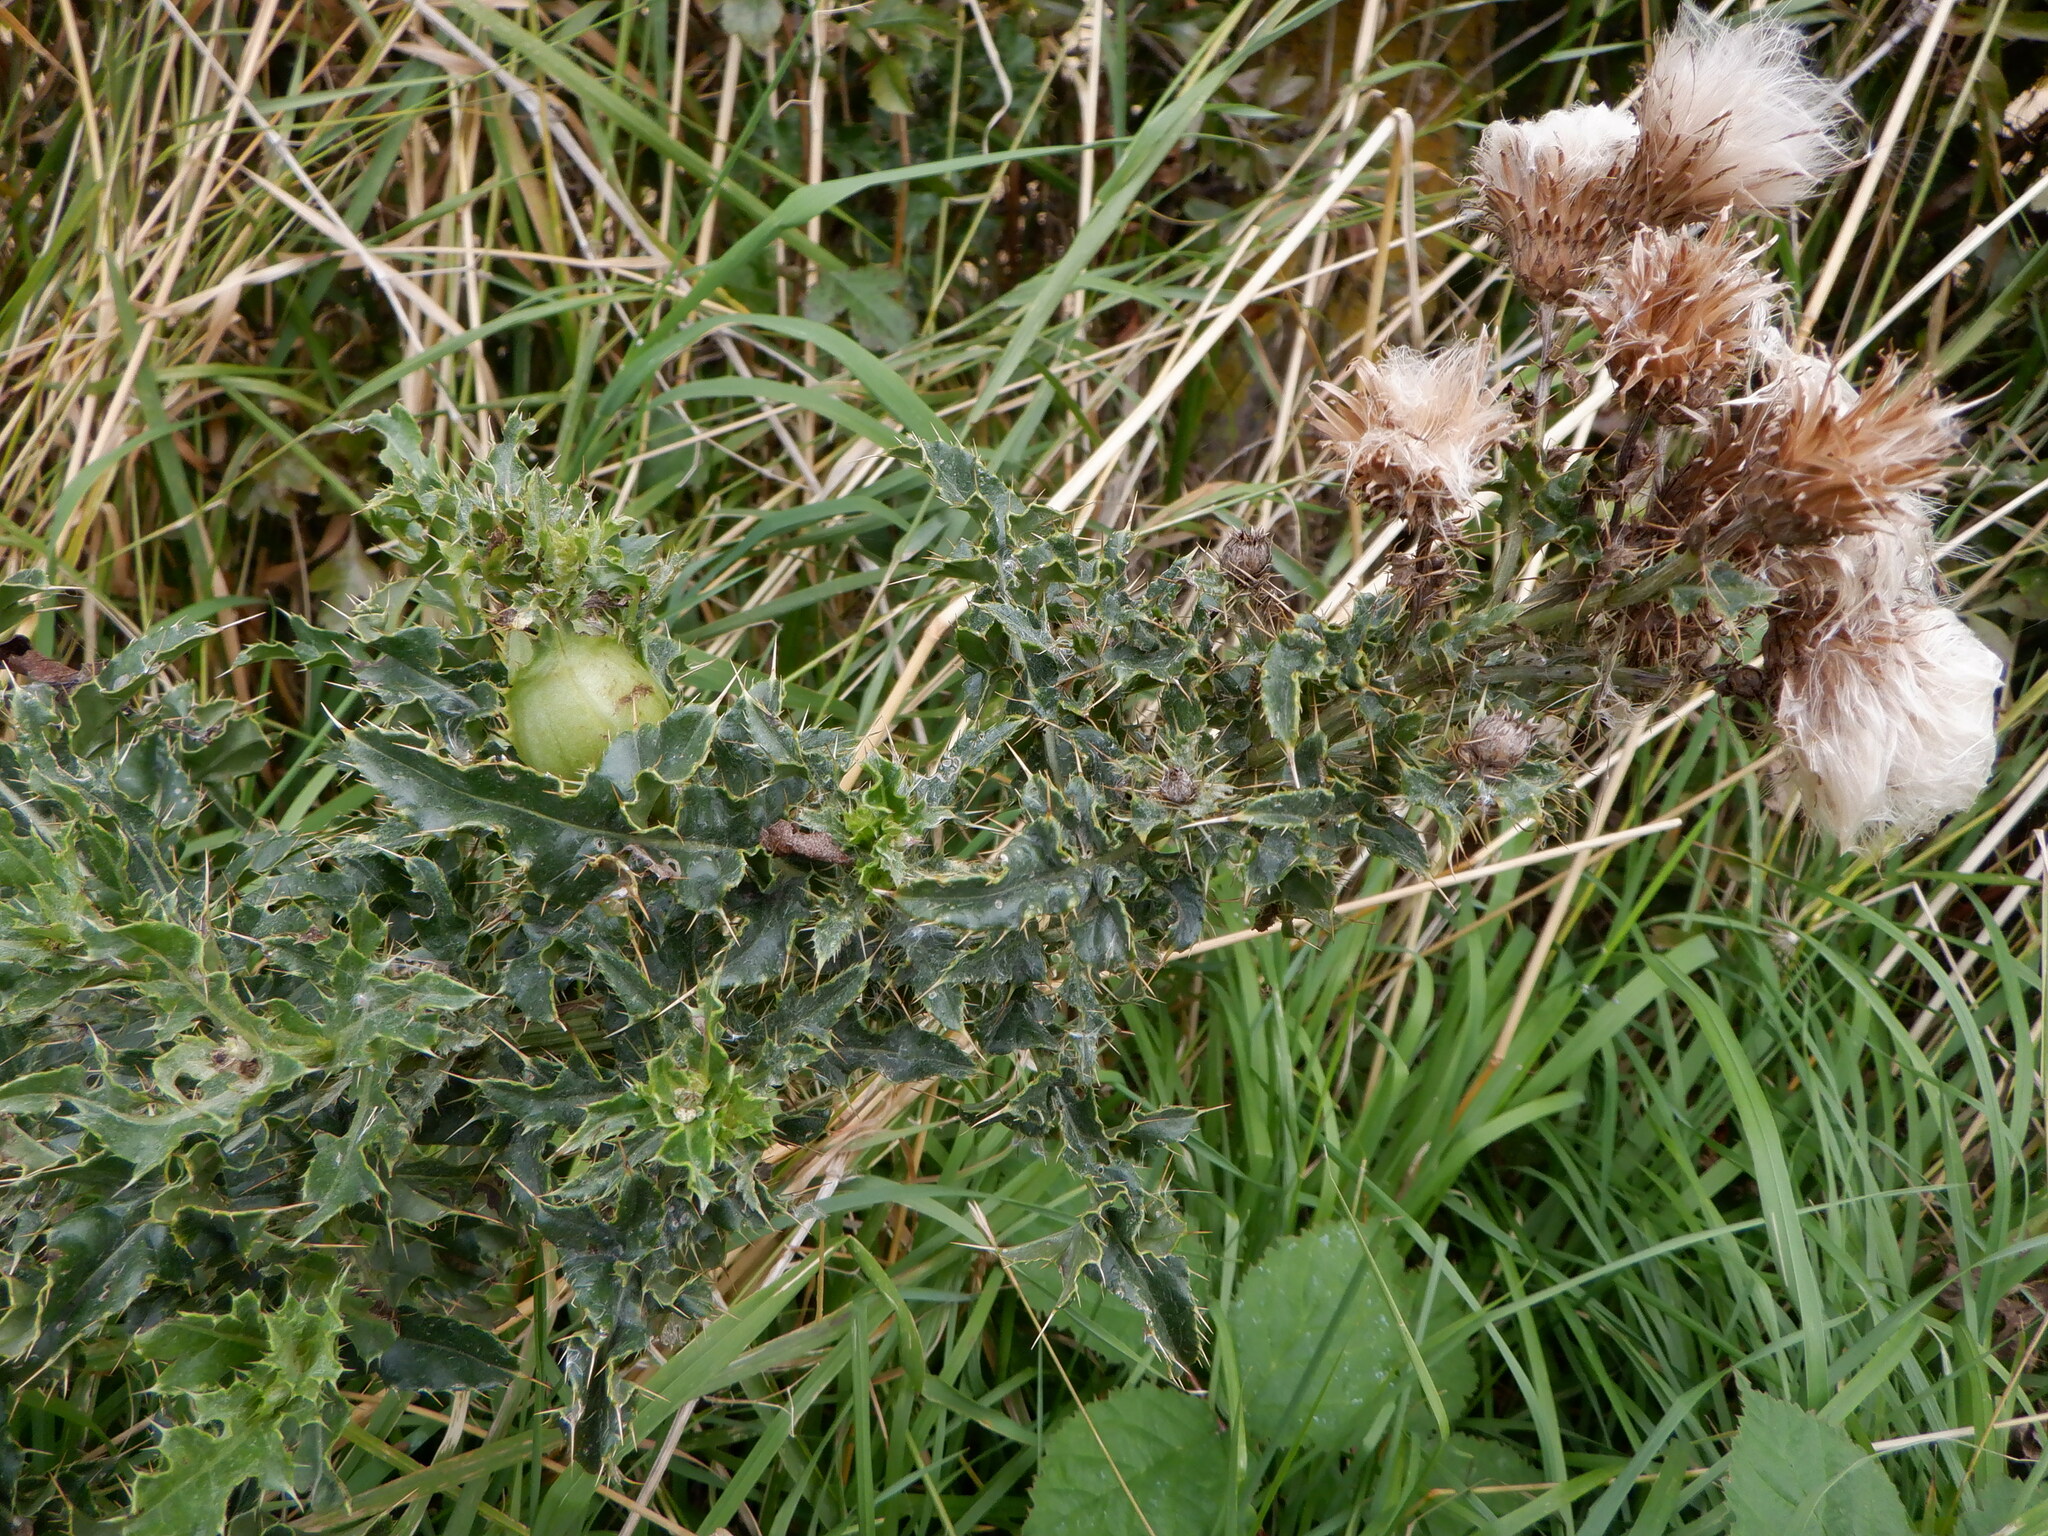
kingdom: Animalia
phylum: Arthropoda
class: Insecta
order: Diptera
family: Tephritidae
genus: Urophora
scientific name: Urophora cardui
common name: Fruit fly
